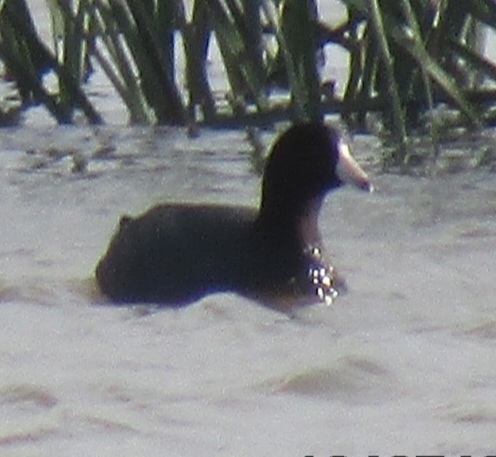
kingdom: Animalia
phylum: Chordata
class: Aves
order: Gruiformes
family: Rallidae
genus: Fulica
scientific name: Fulica americana
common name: American coot
